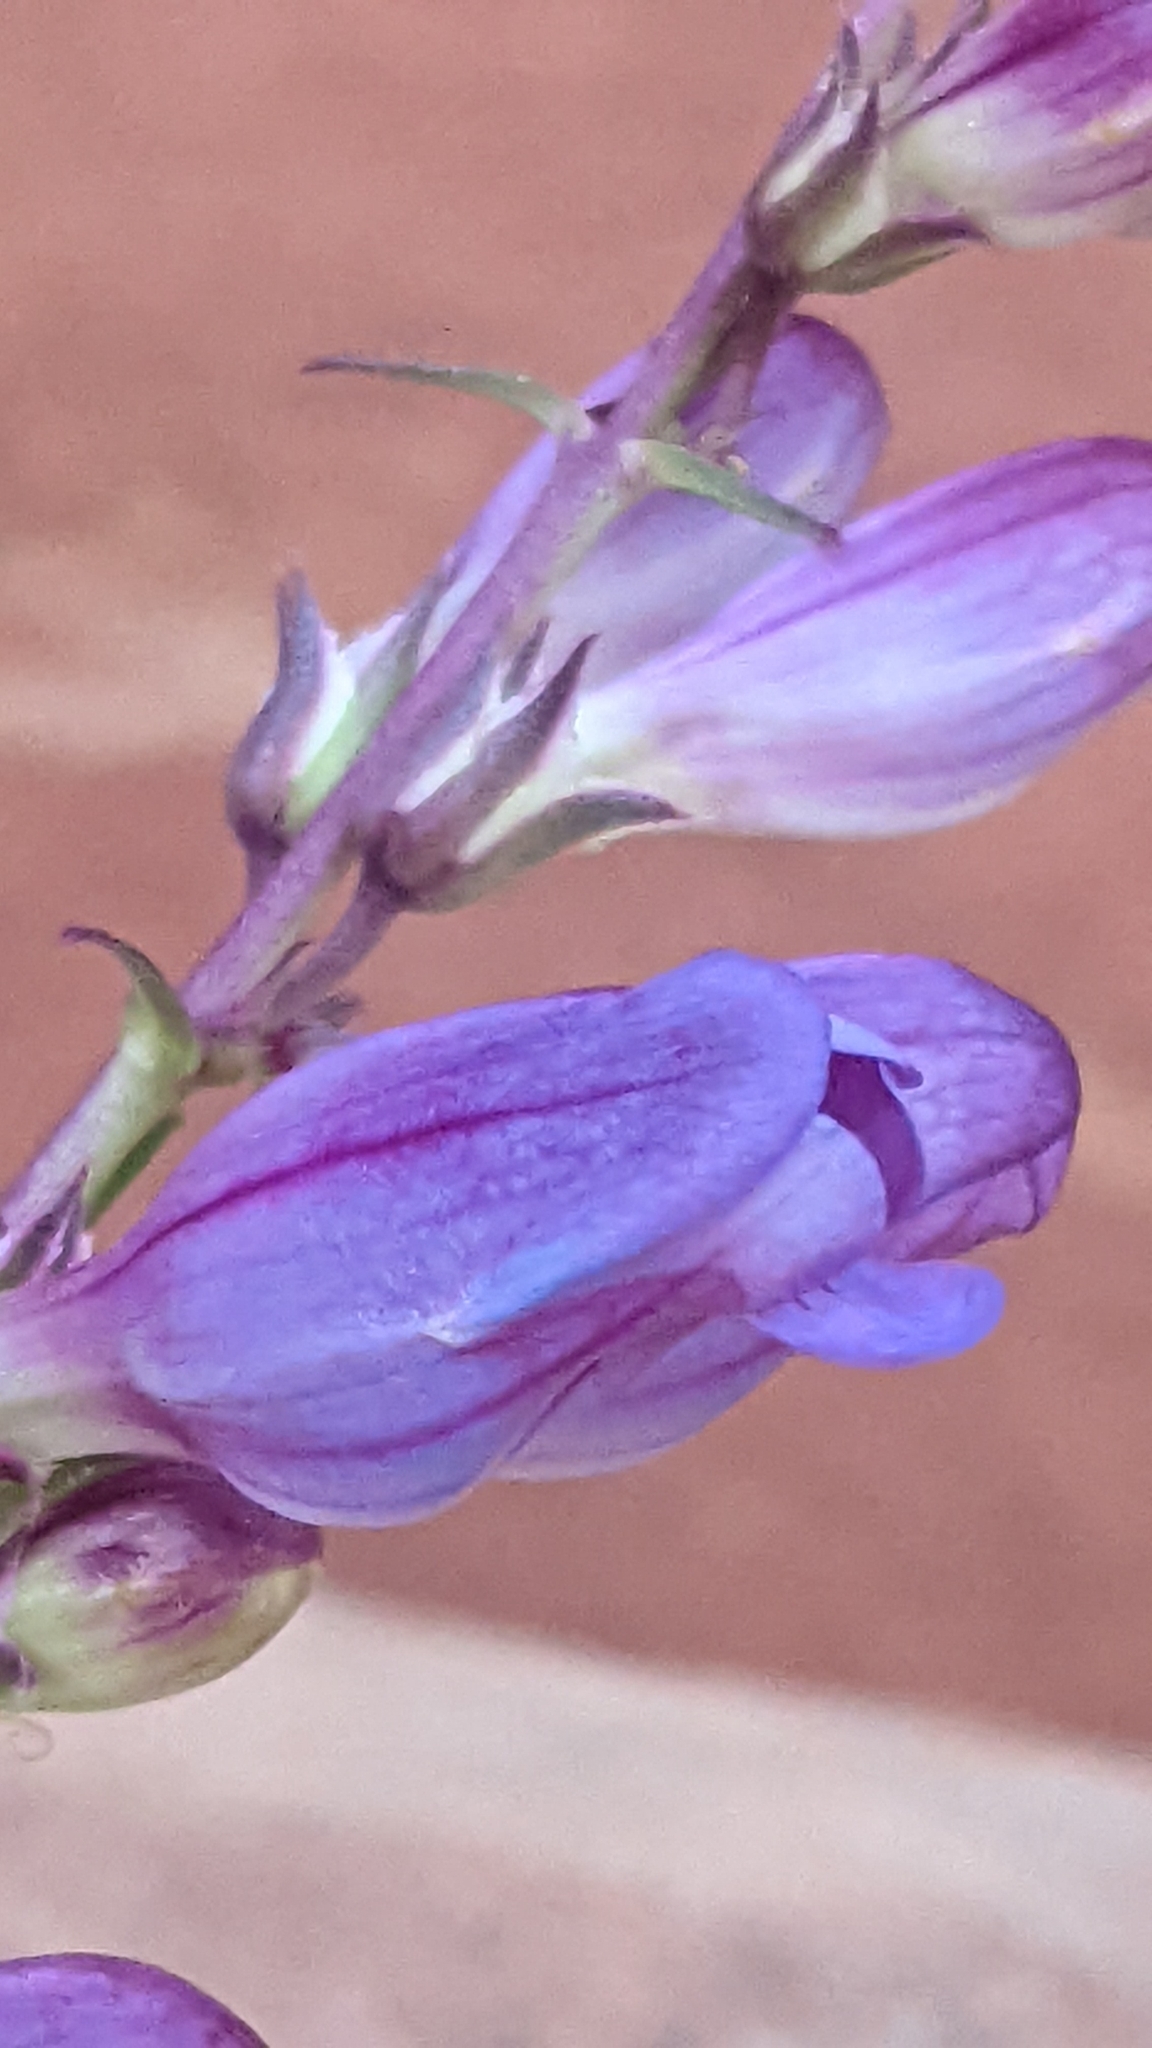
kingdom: Plantae
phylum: Tracheophyta
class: Magnoliopsida
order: Lamiales
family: Plantaginaceae
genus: Penstemon
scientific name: Penstemon laevis
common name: Smooth penstemon
